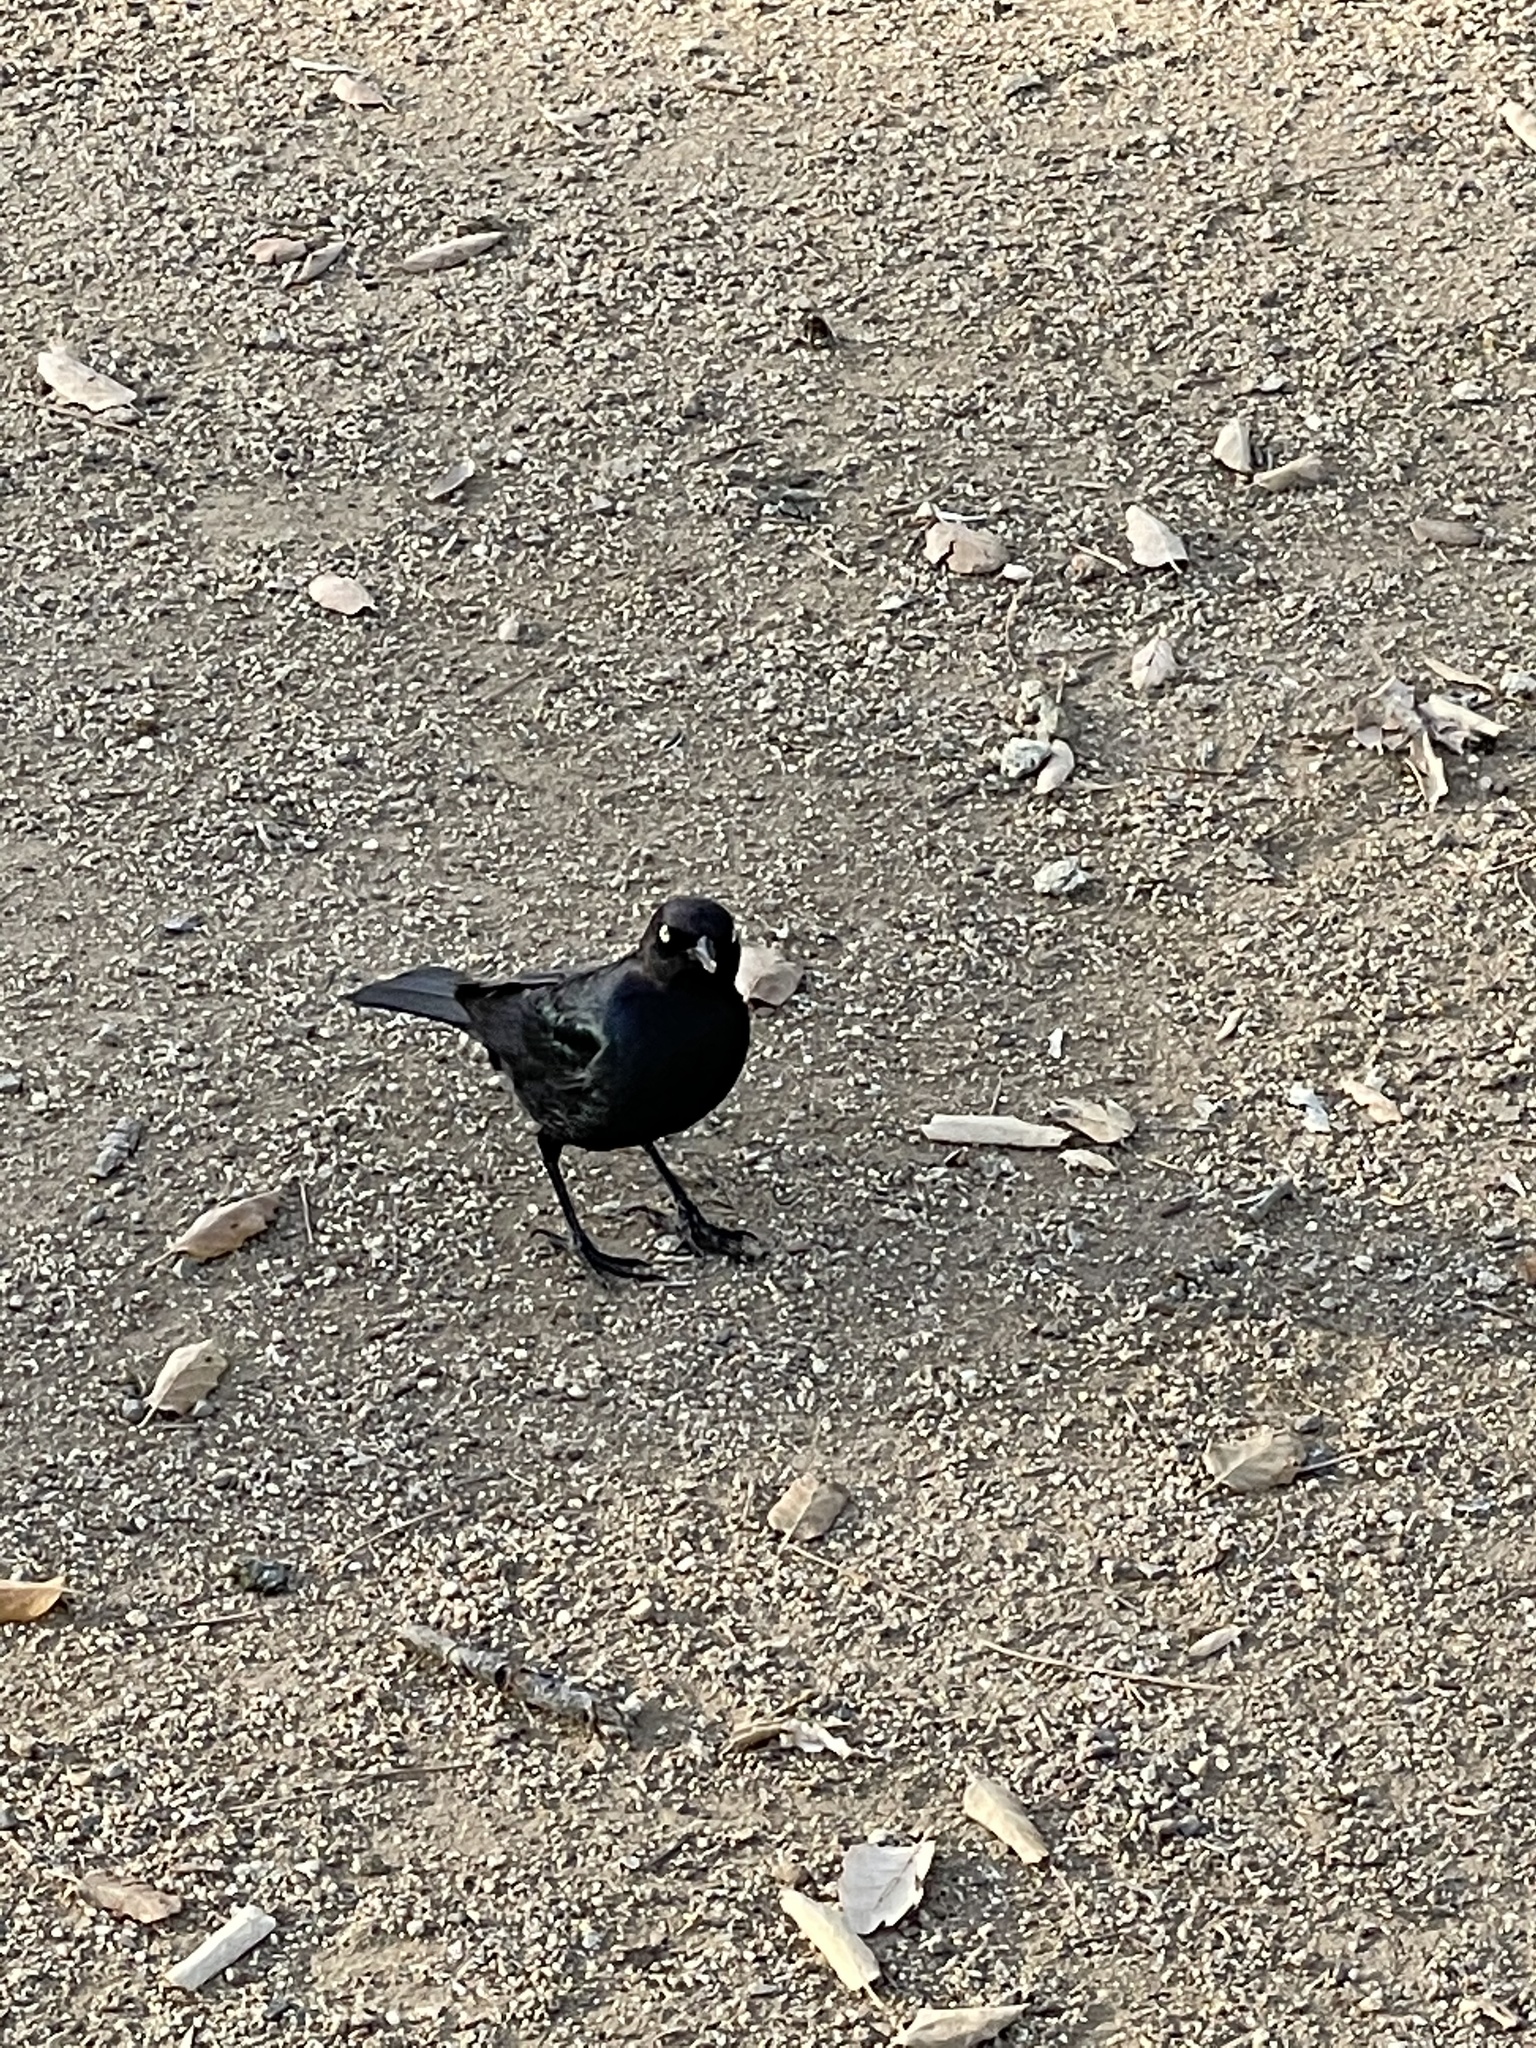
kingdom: Animalia
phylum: Chordata
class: Aves
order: Passeriformes
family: Icteridae
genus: Euphagus
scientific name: Euphagus cyanocephalus
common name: Brewer's blackbird
